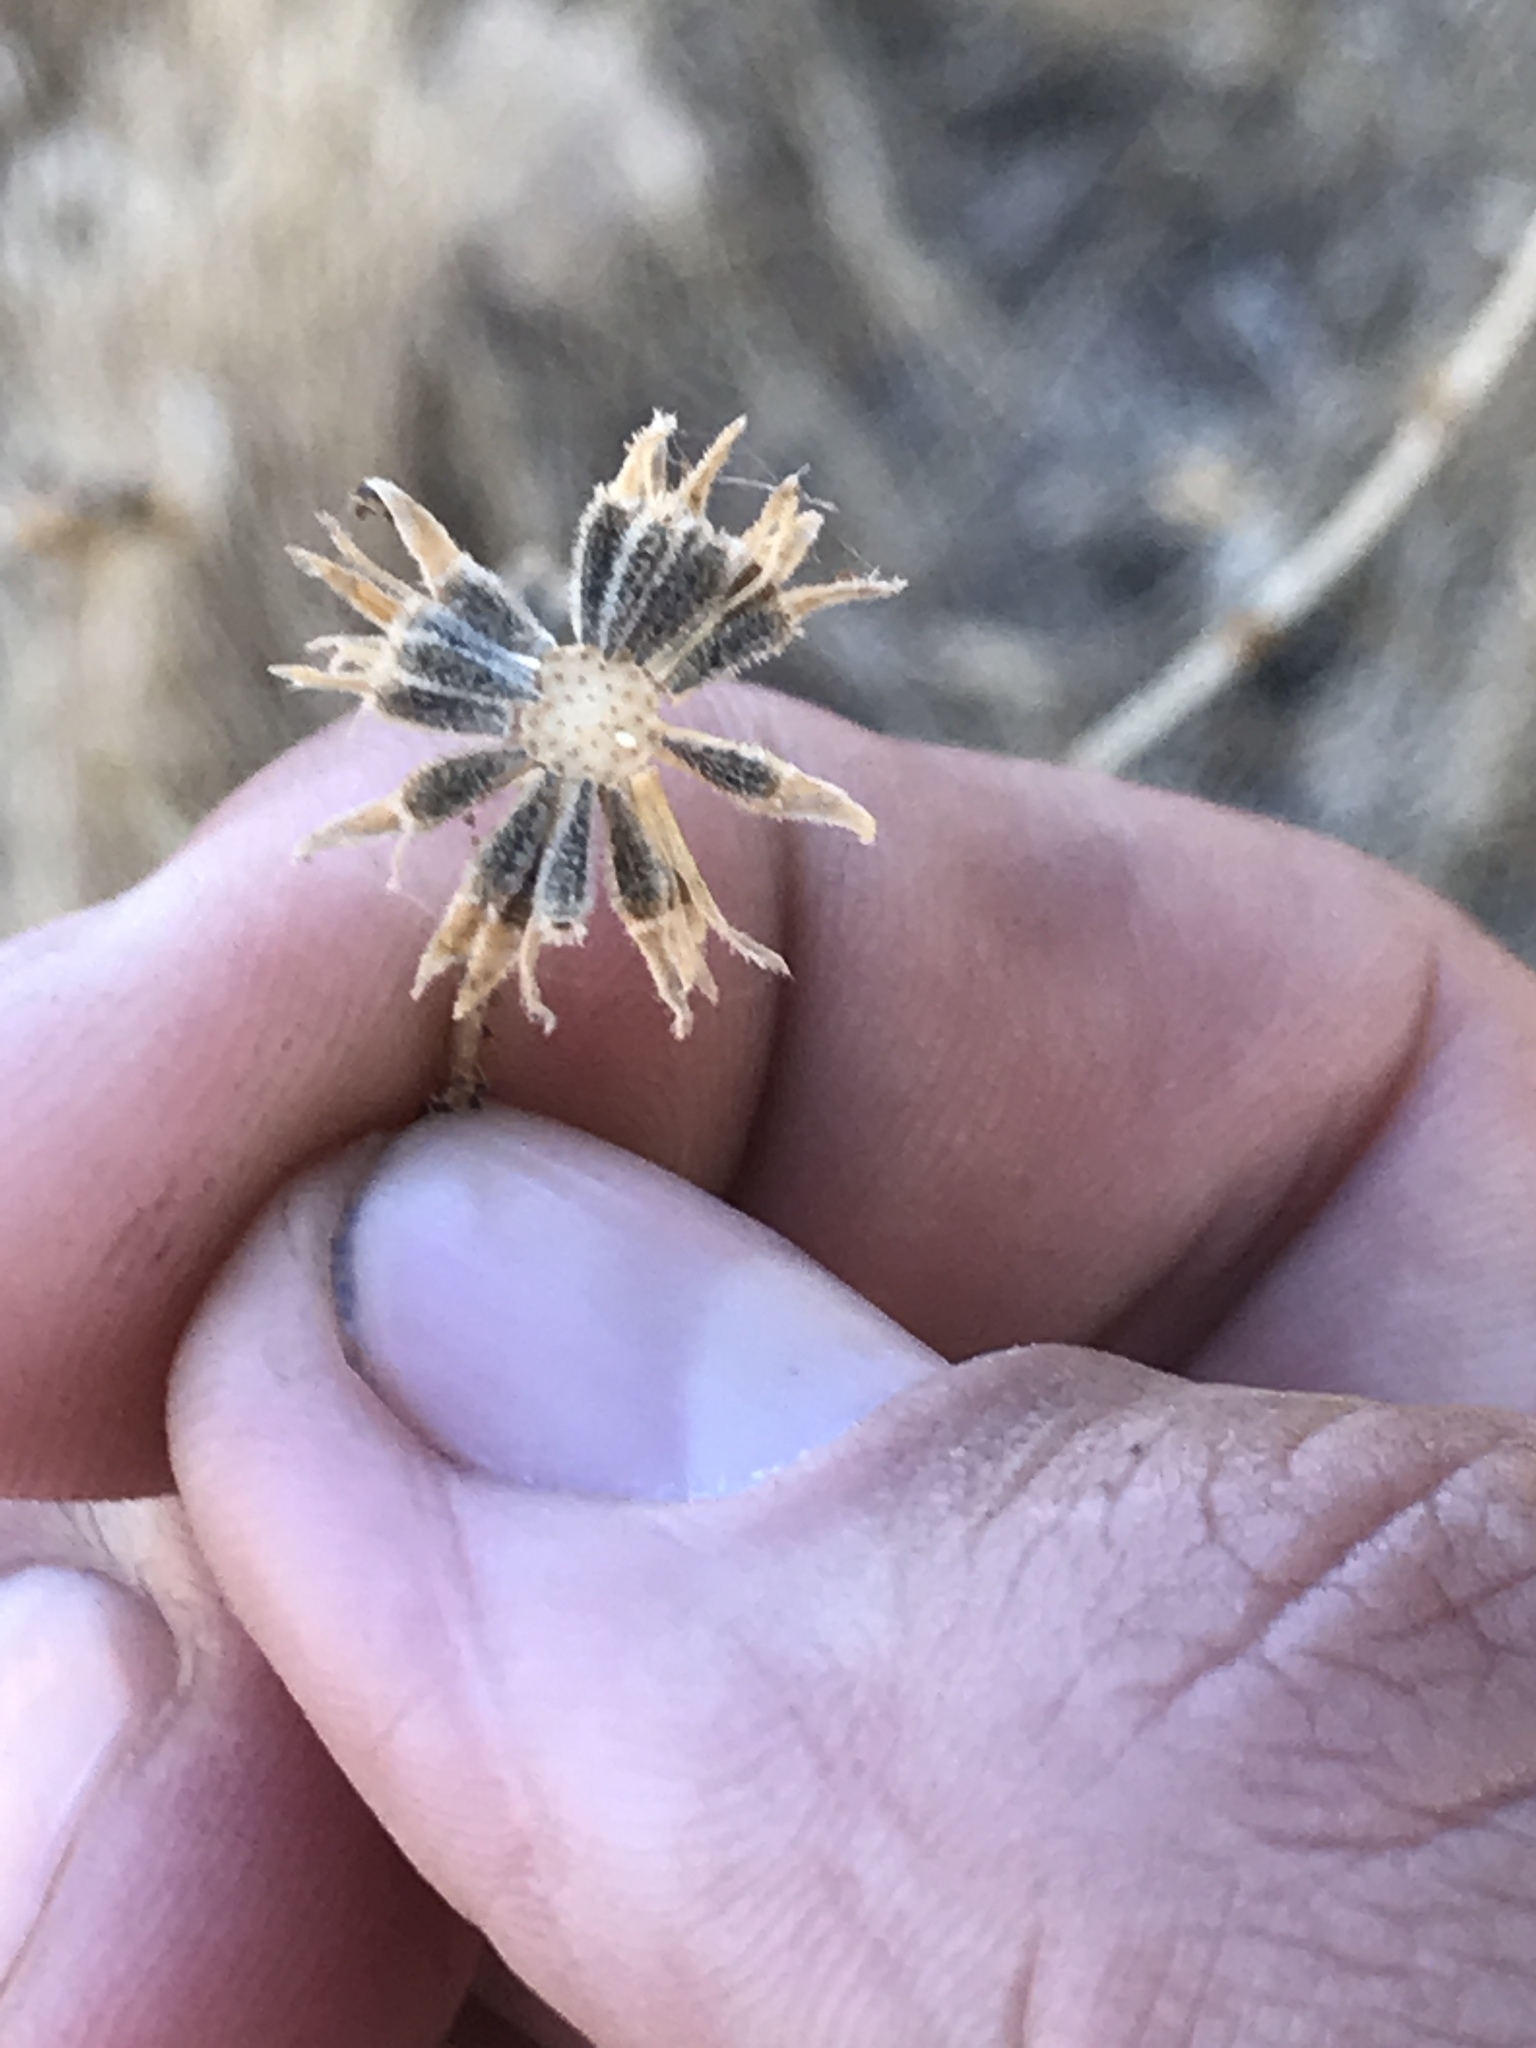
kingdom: Plantae
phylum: Tracheophyta
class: Magnoliopsida
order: Asterales
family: Asteraceae
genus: Blepharizonia
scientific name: Blepharizonia laxa
